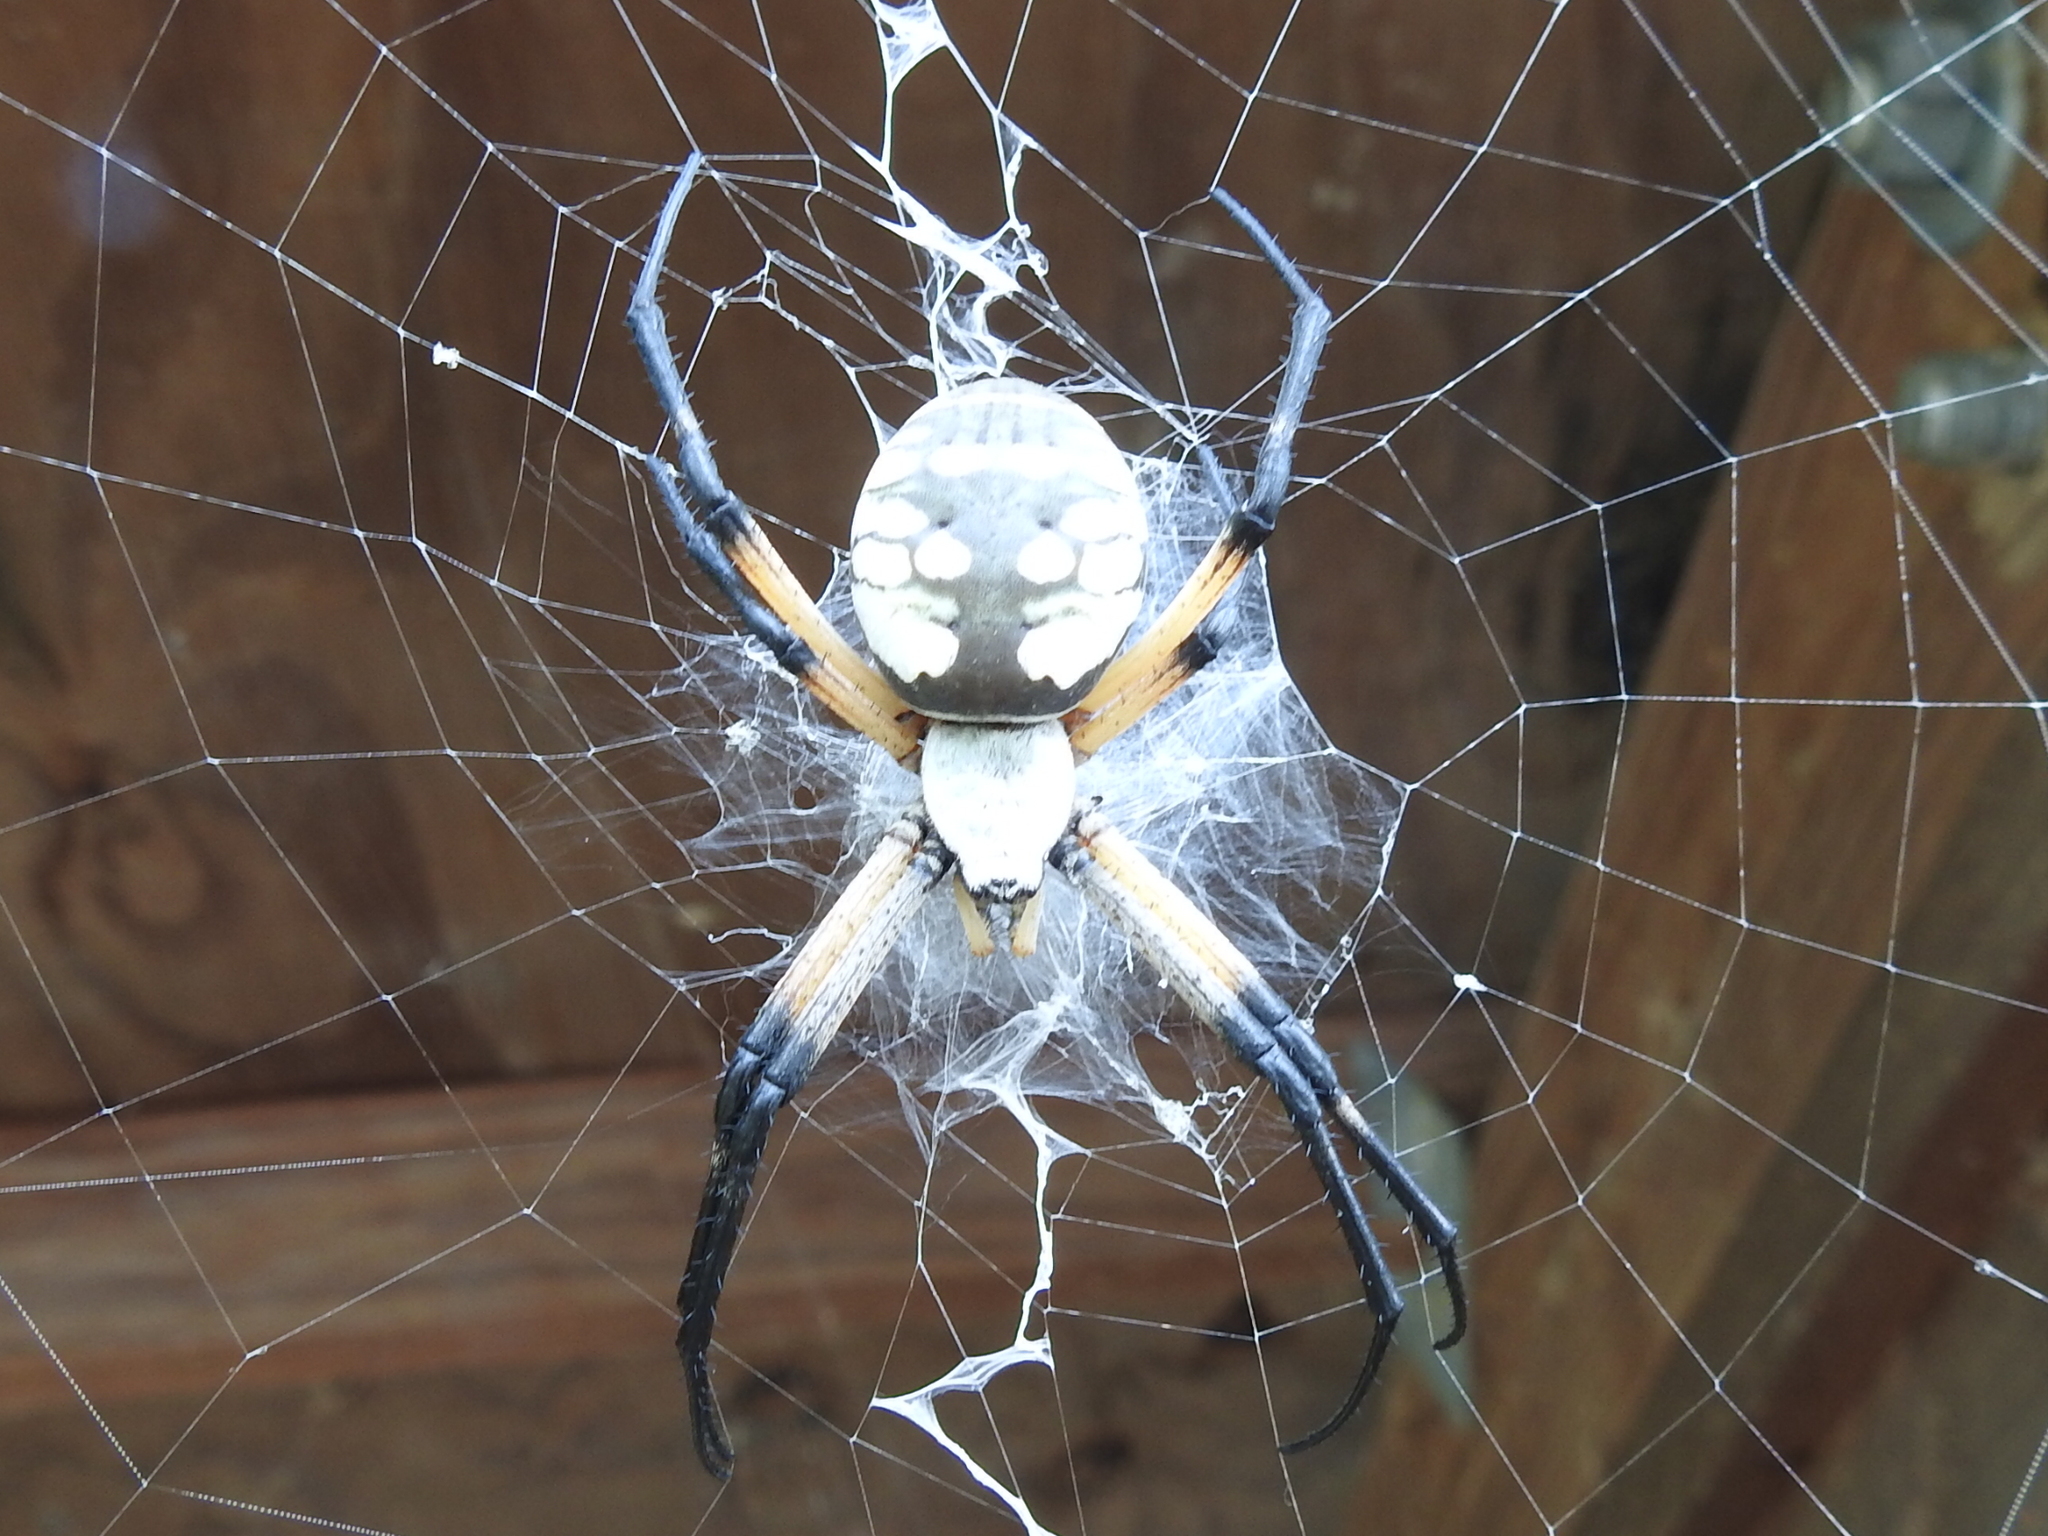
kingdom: Animalia
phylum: Arthropoda
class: Arachnida
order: Araneae
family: Araneidae
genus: Argiope
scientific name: Argiope aurantia
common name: Orb weavers
